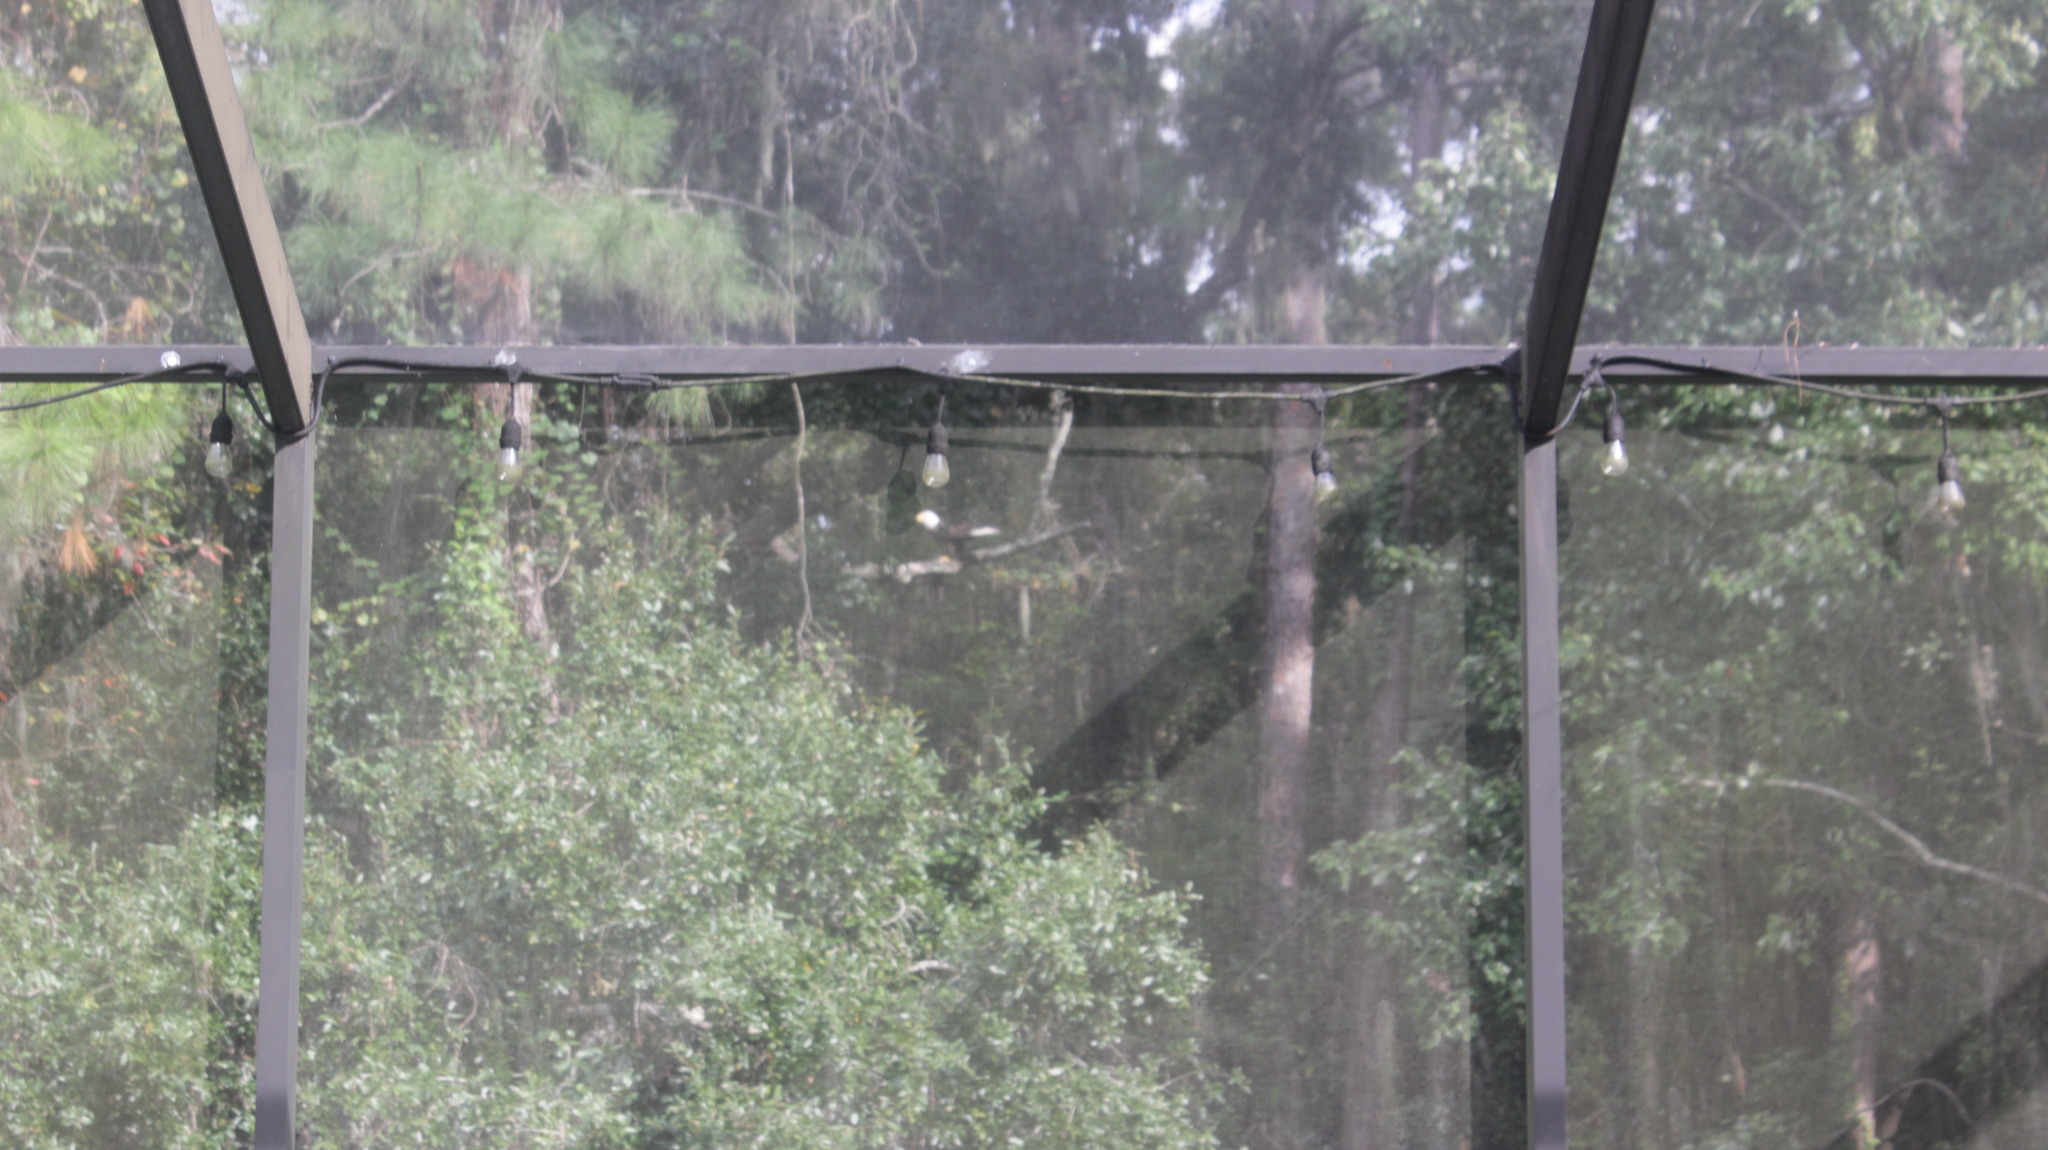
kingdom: Animalia
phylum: Chordata
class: Aves
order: Accipitriformes
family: Accipitridae
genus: Haliaeetus
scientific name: Haliaeetus leucocephalus
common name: Bald eagle
